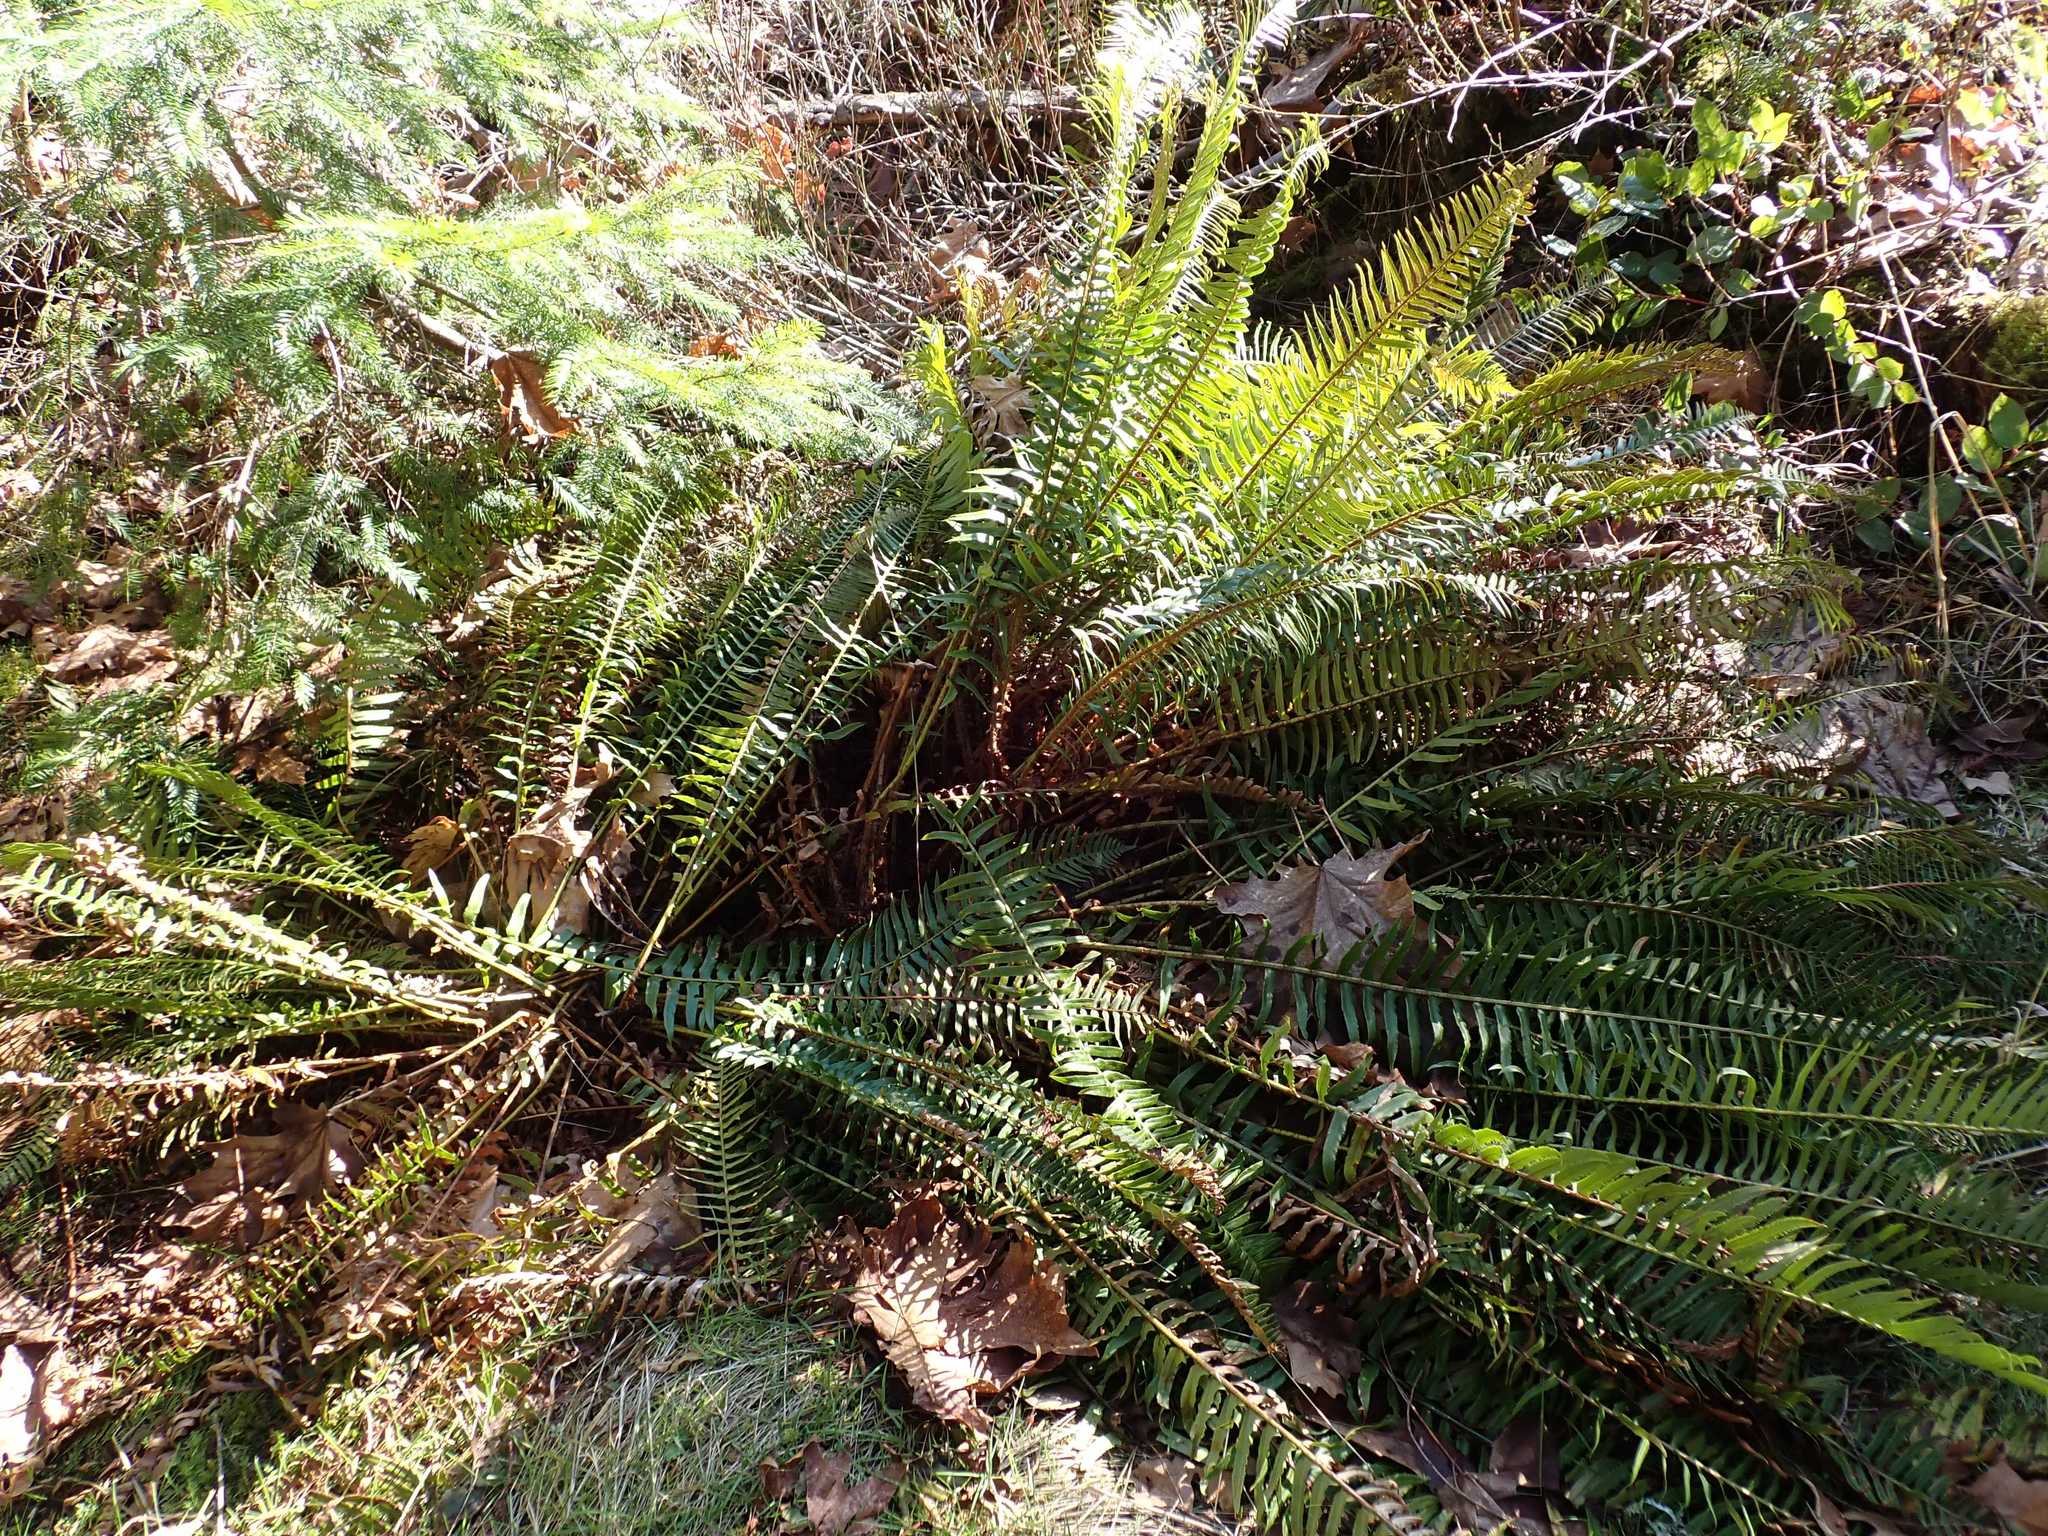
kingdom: Plantae
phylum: Tracheophyta
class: Polypodiopsida
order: Polypodiales
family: Dryopteridaceae
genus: Polystichum
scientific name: Polystichum munitum
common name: Western sword-fern
